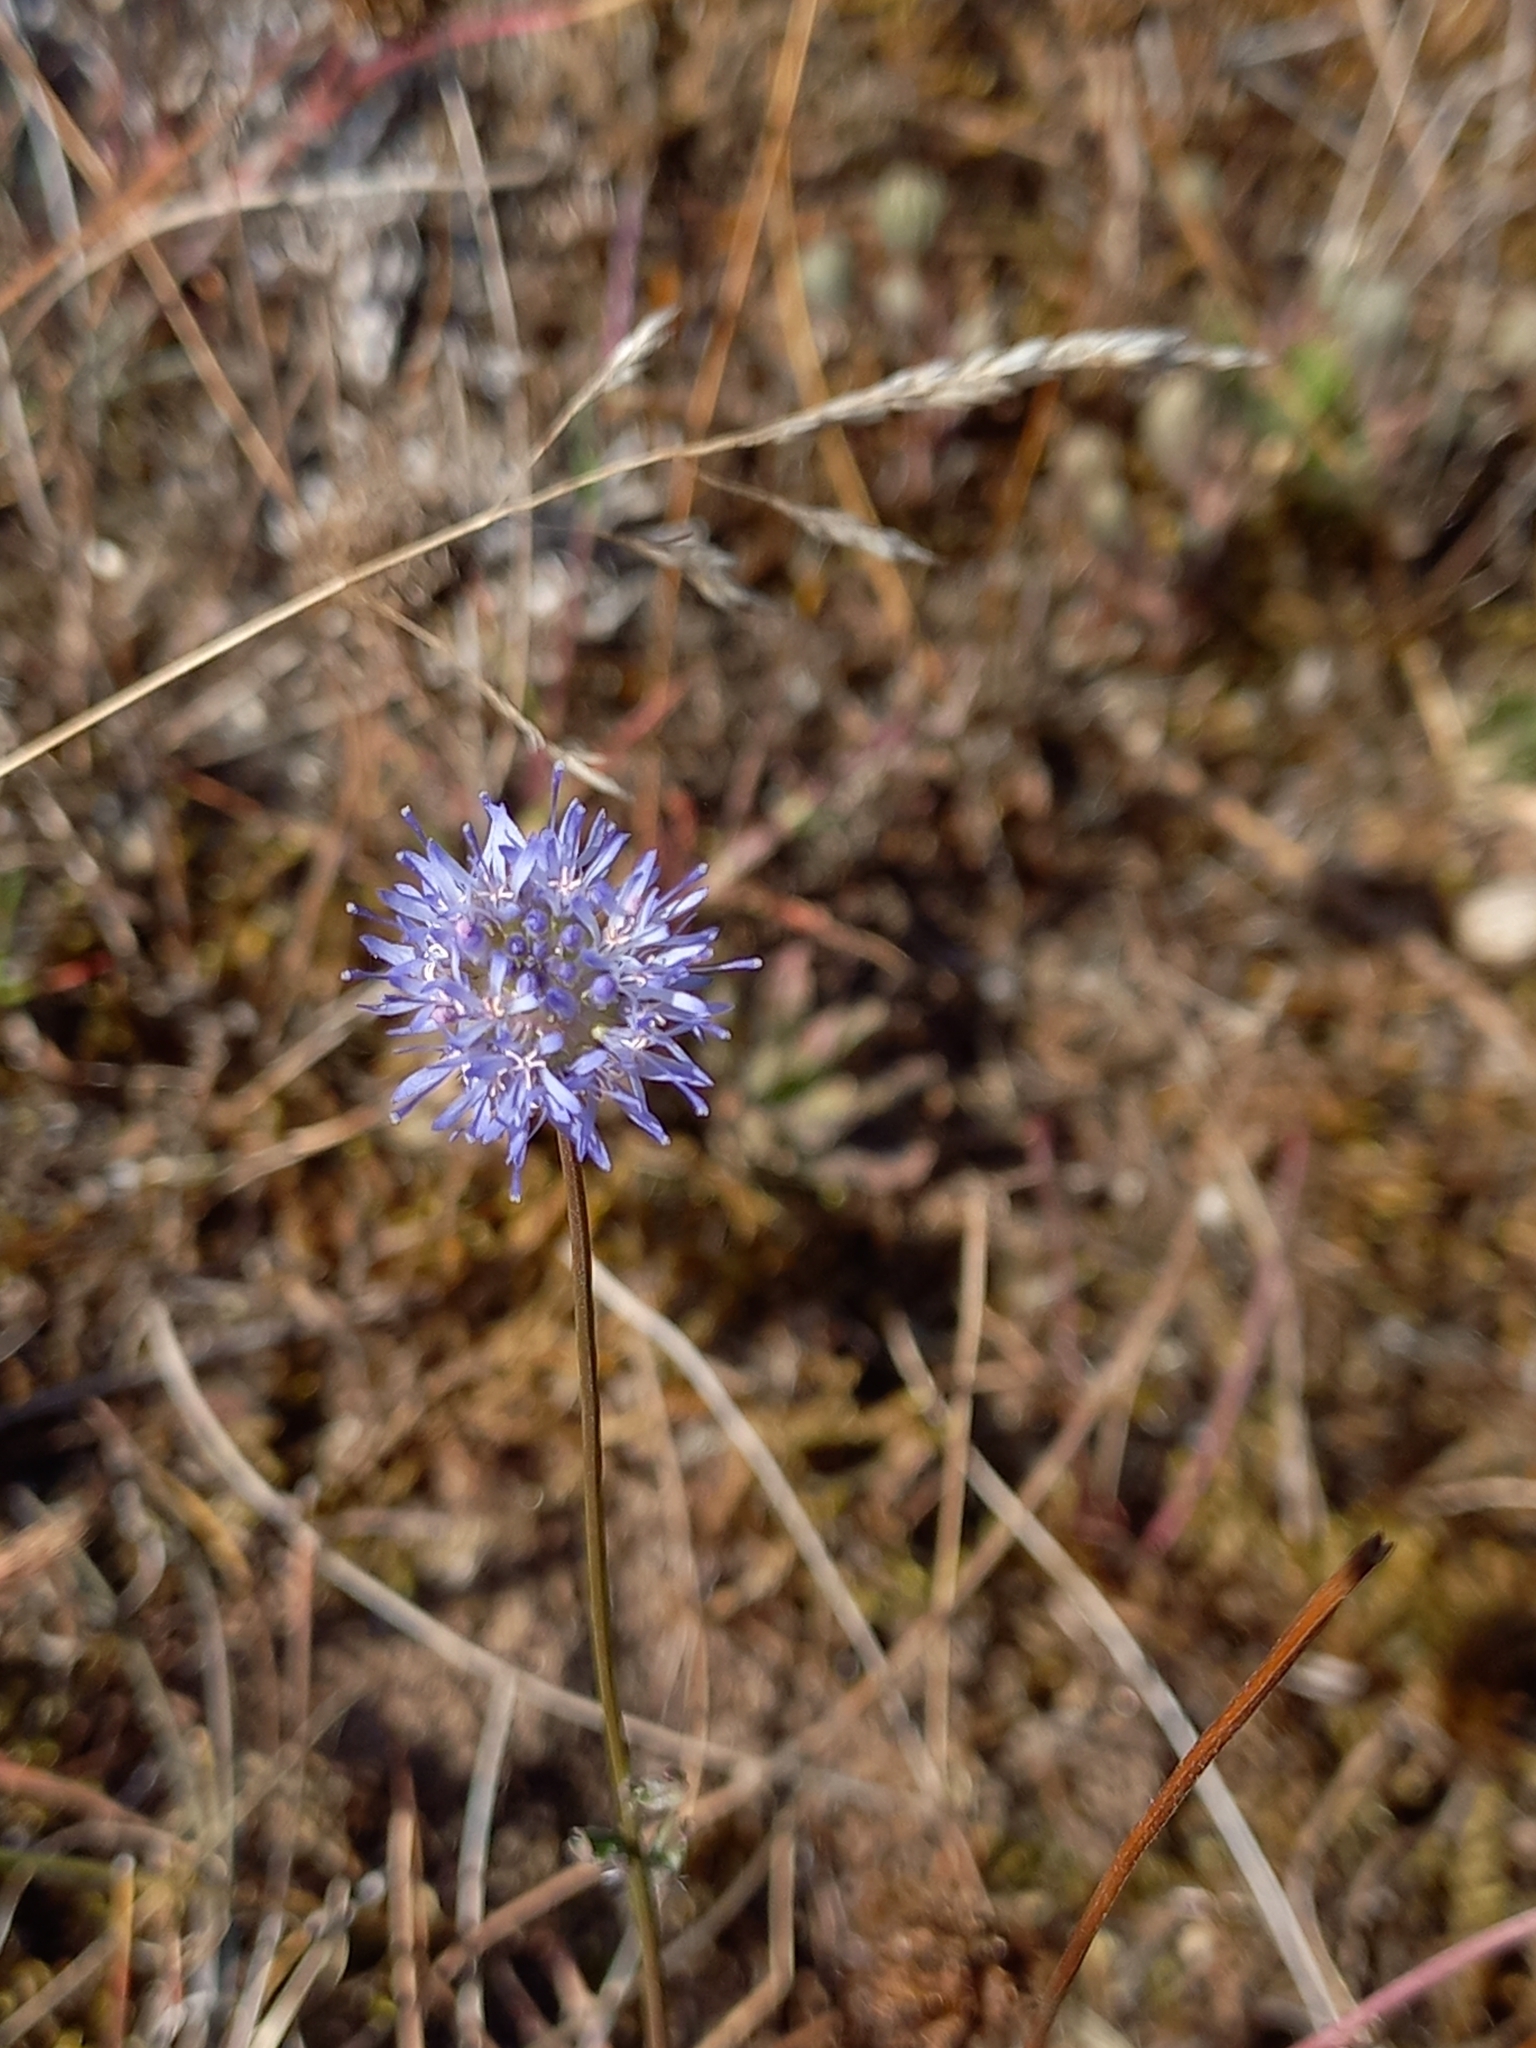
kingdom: Plantae
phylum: Tracheophyta
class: Magnoliopsida
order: Asterales
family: Campanulaceae
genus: Jasione
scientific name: Jasione montana
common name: Sheep's-bit
